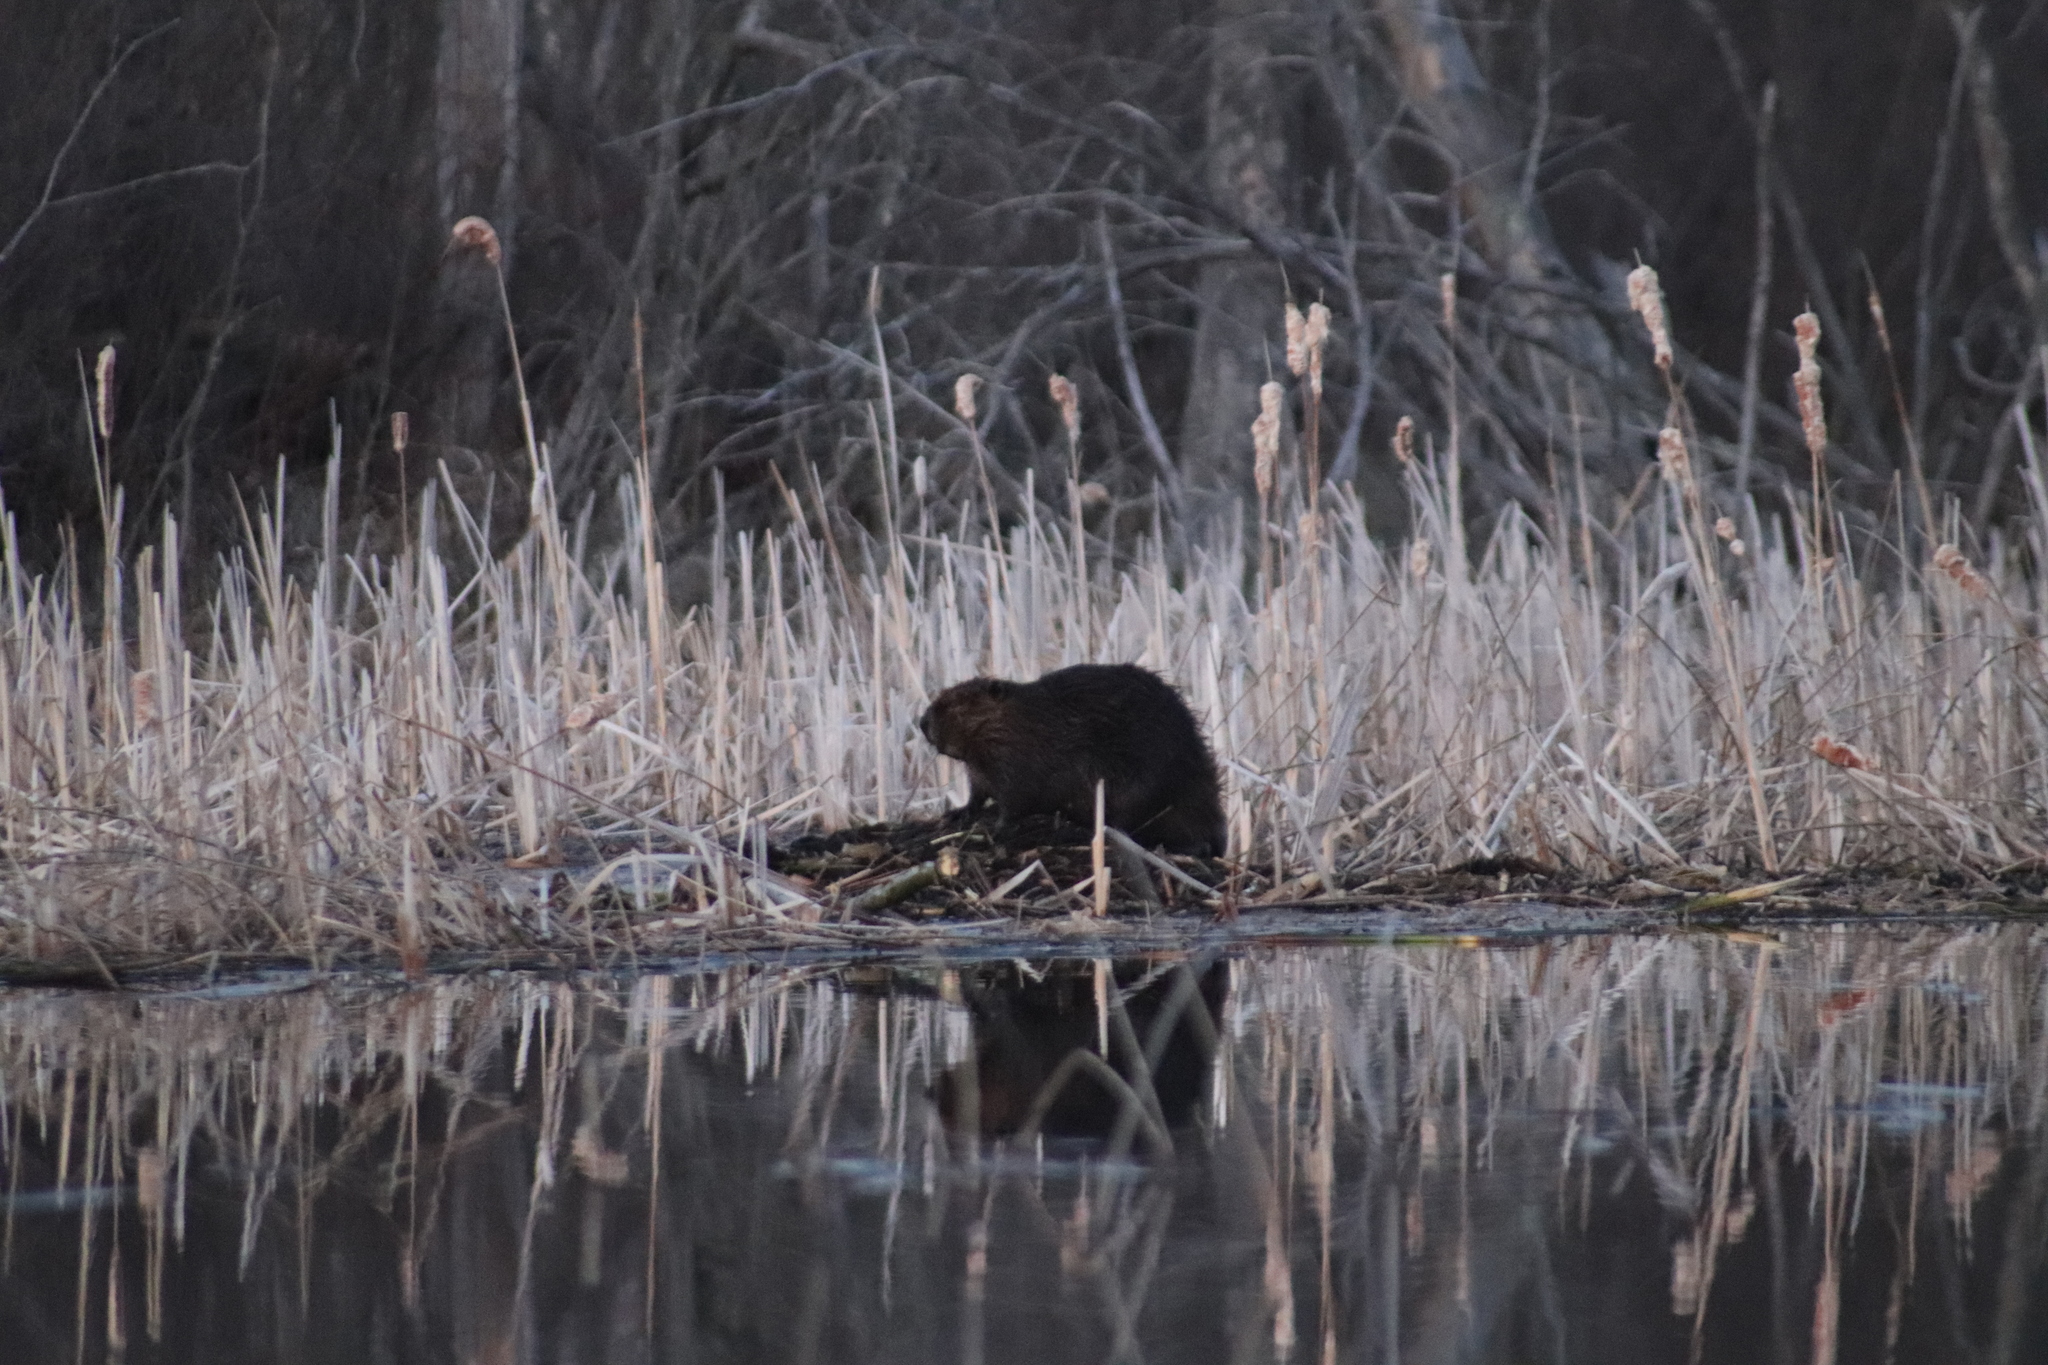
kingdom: Animalia
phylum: Chordata
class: Mammalia
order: Rodentia
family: Castoridae
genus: Castor
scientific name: Castor canadensis
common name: American beaver
